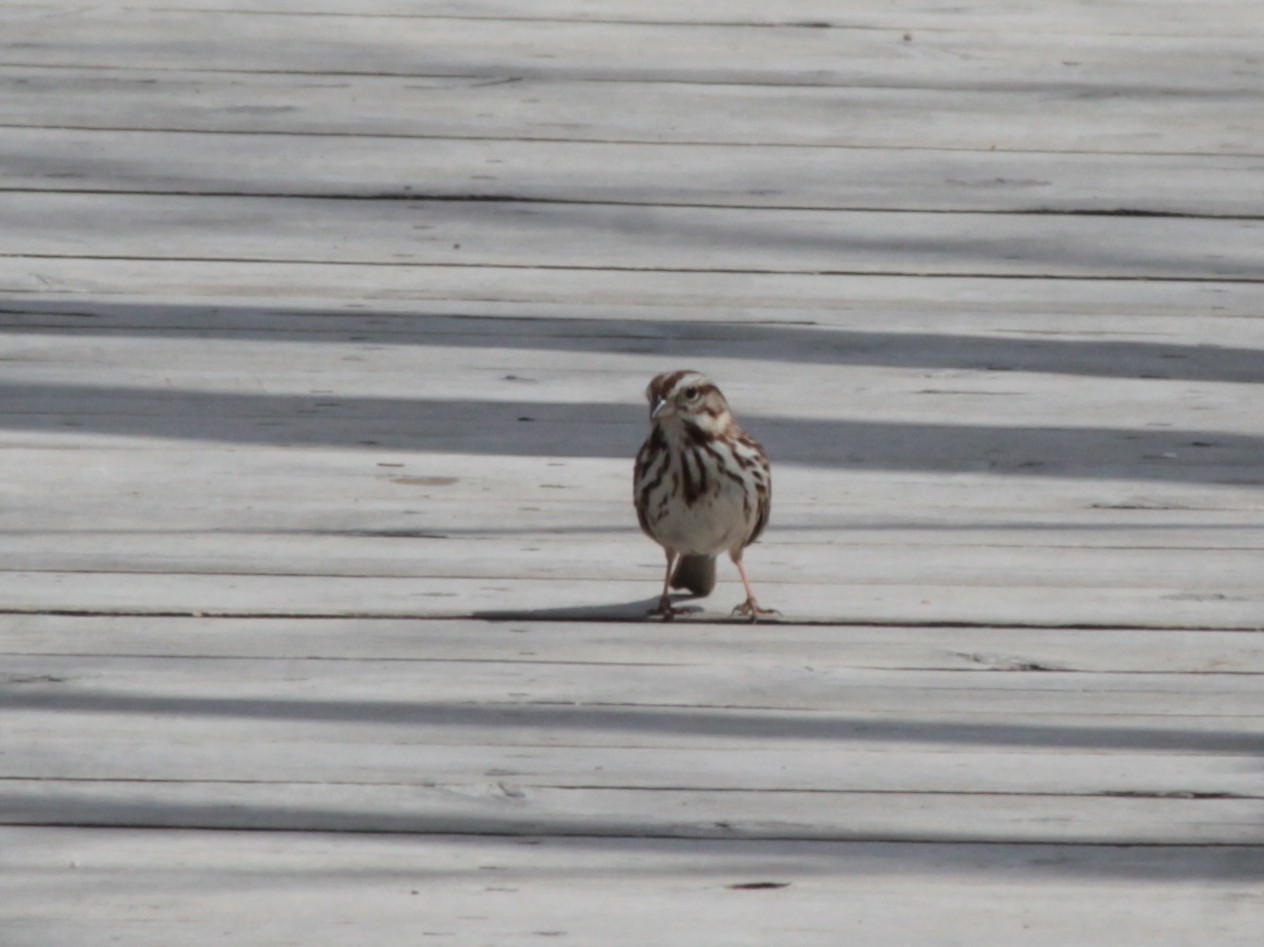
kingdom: Animalia
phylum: Chordata
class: Aves
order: Passeriformes
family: Passerellidae
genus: Melospiza
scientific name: Melospiza melodia
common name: Song sparrow
